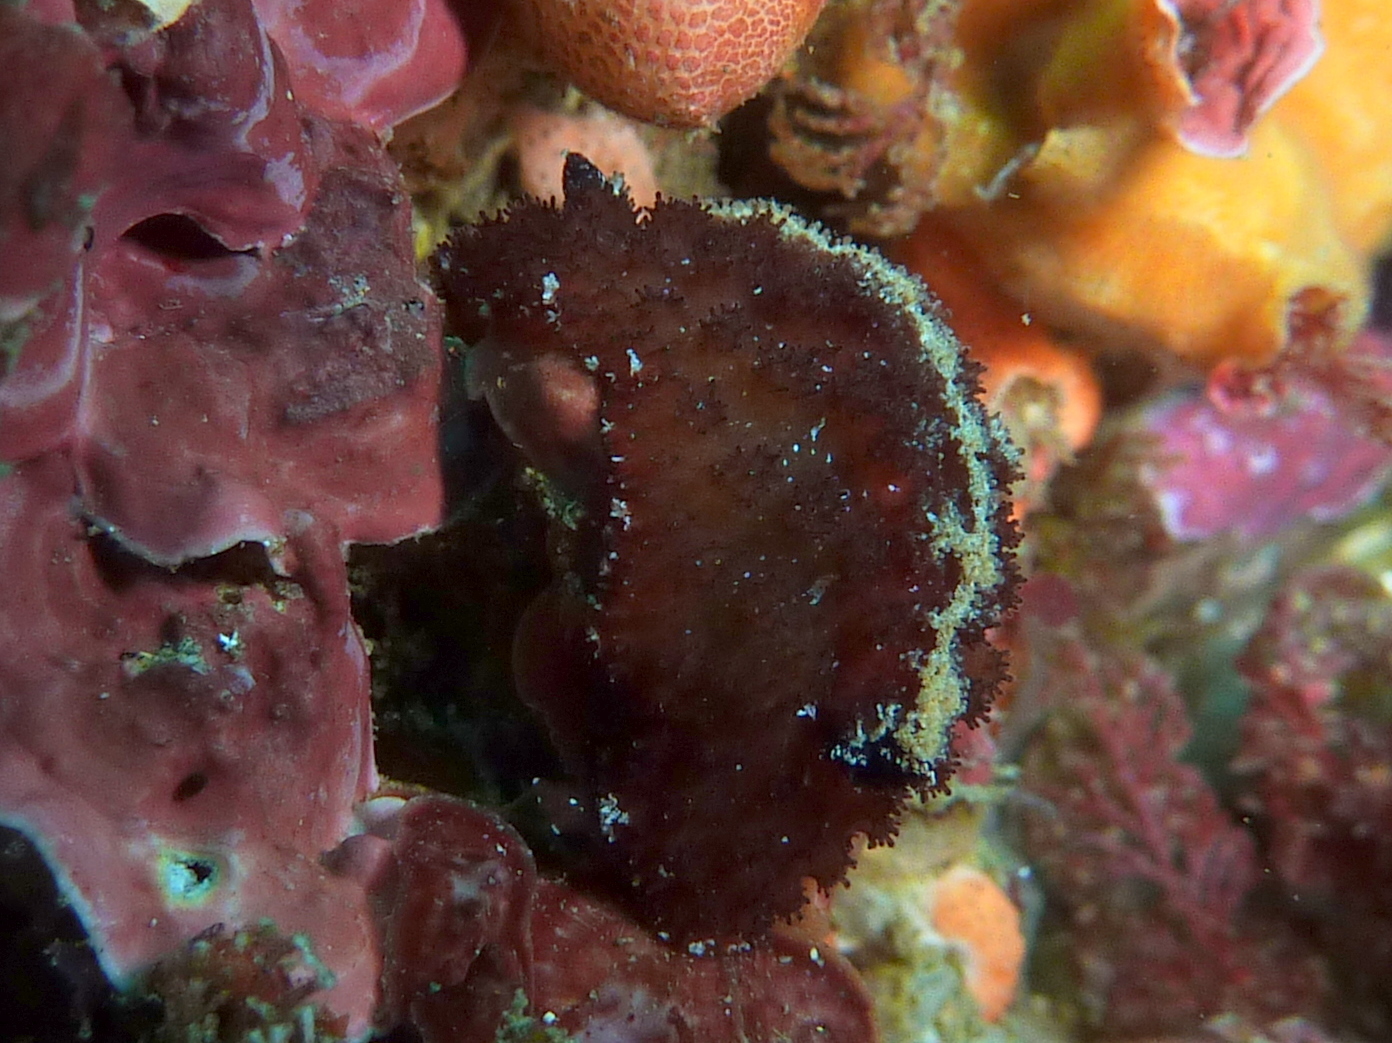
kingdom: Animalia
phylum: Mollusca
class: Gastropoda
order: Nudibranchia
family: Discodorididae
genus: Atagema
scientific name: Atagema intecta
